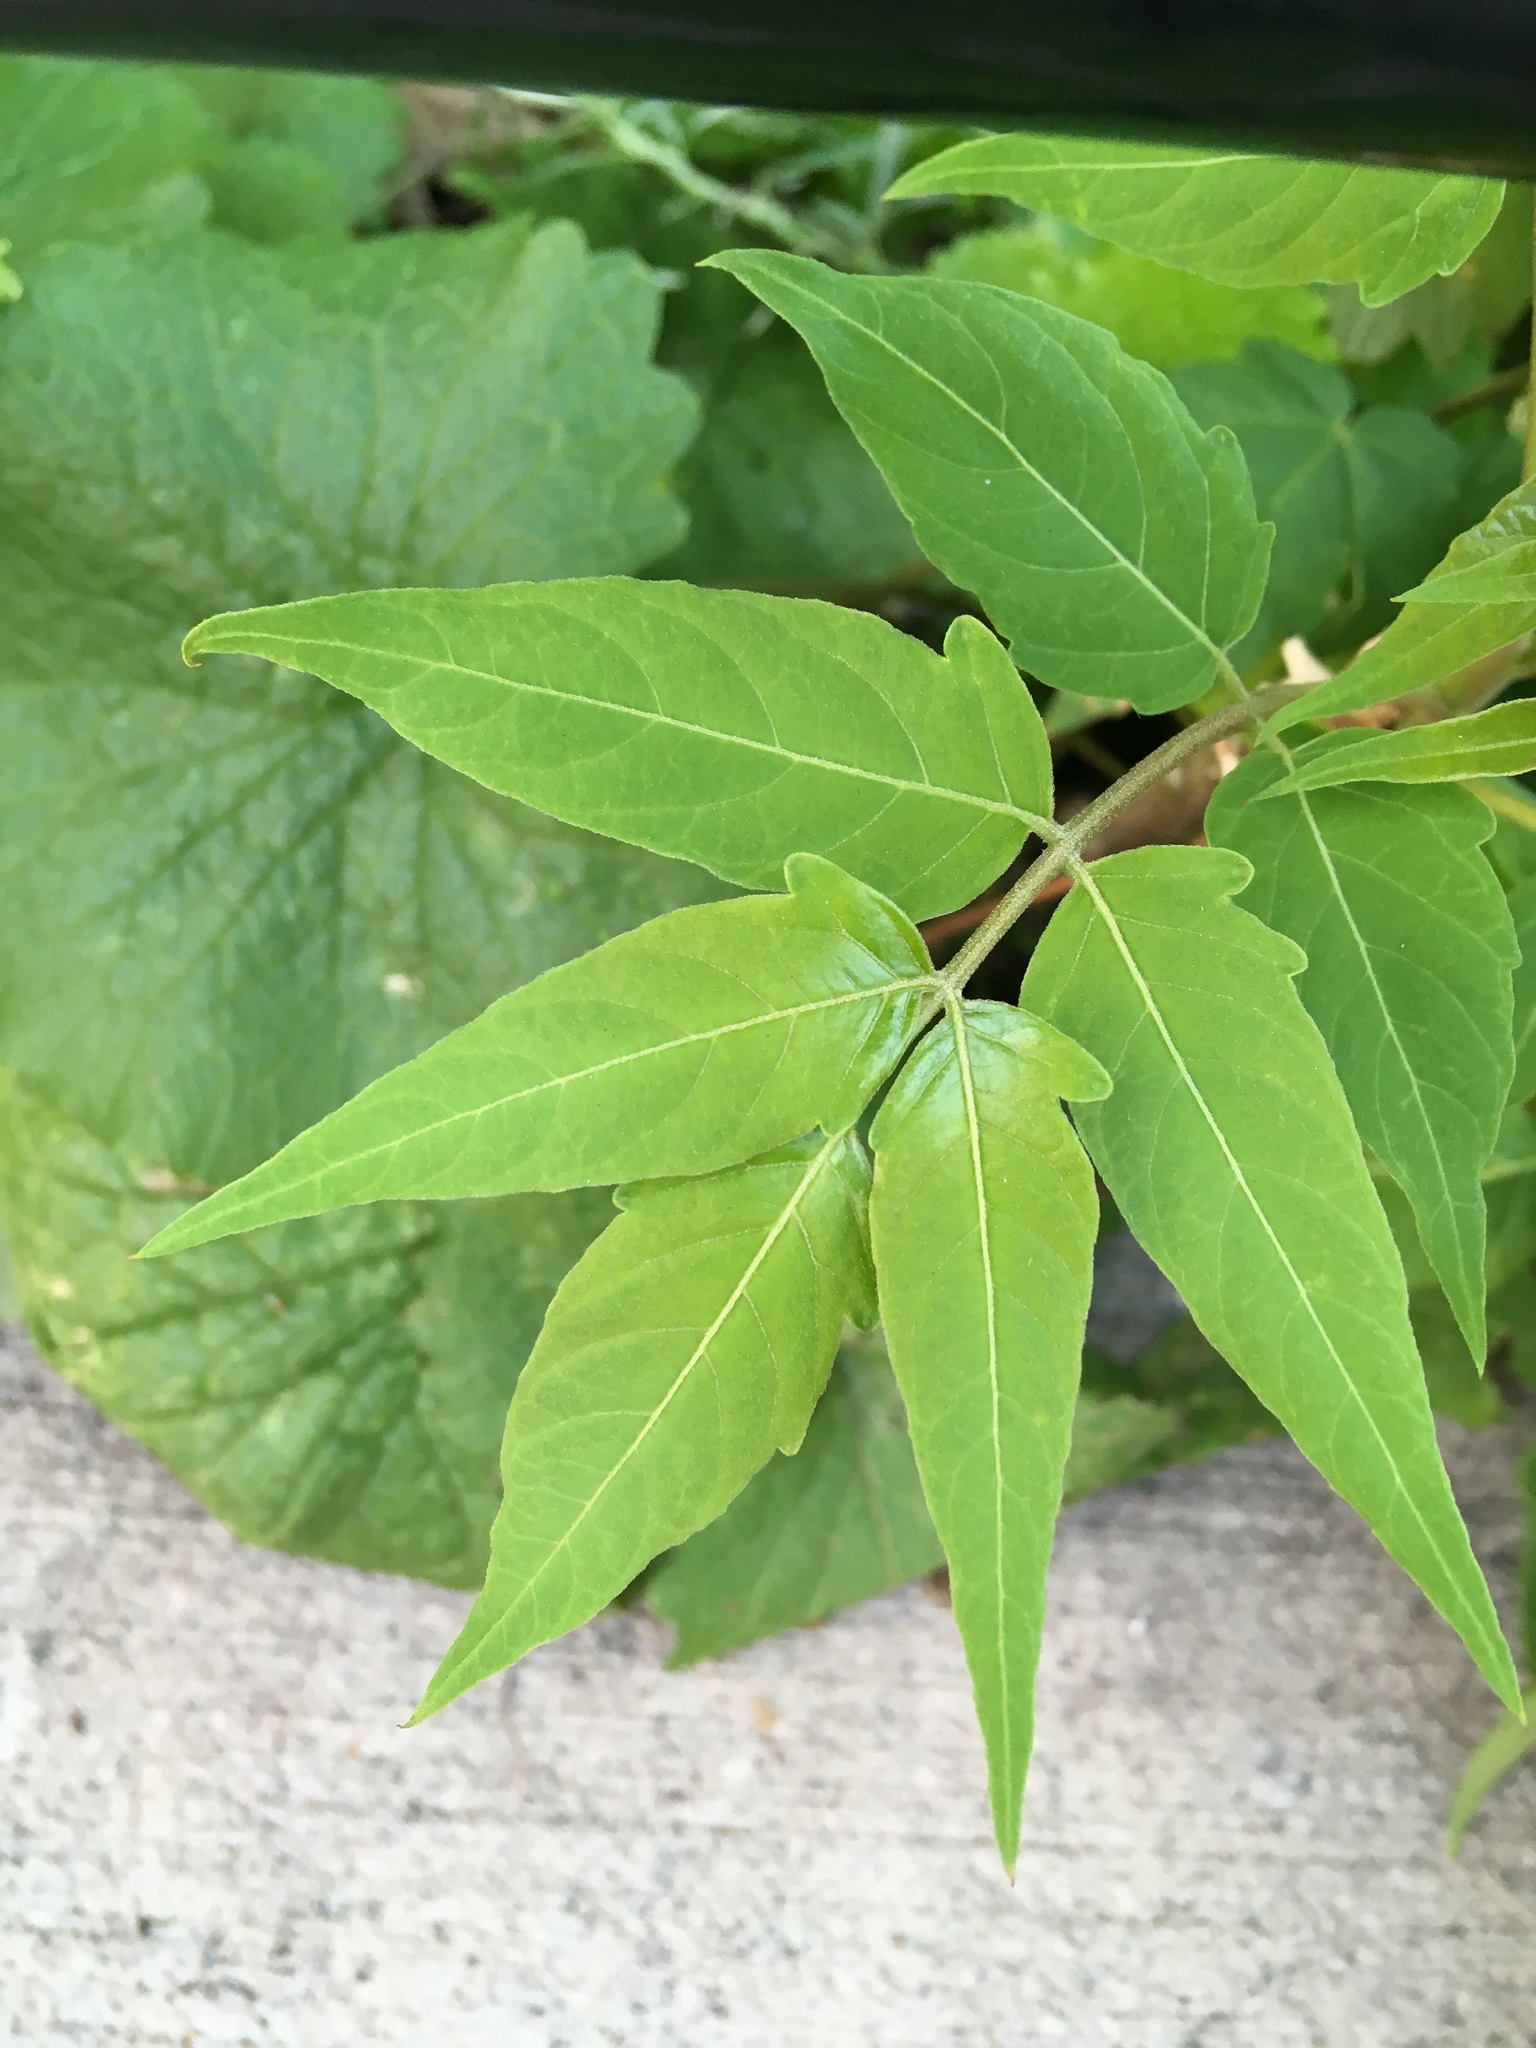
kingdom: Plantae
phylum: Tracheophyta
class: Magnoliopsida
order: Sapindales
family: Simaroubaceae
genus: Ailanthus
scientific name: Ailanthus altissima
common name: Tree-of-heaven
